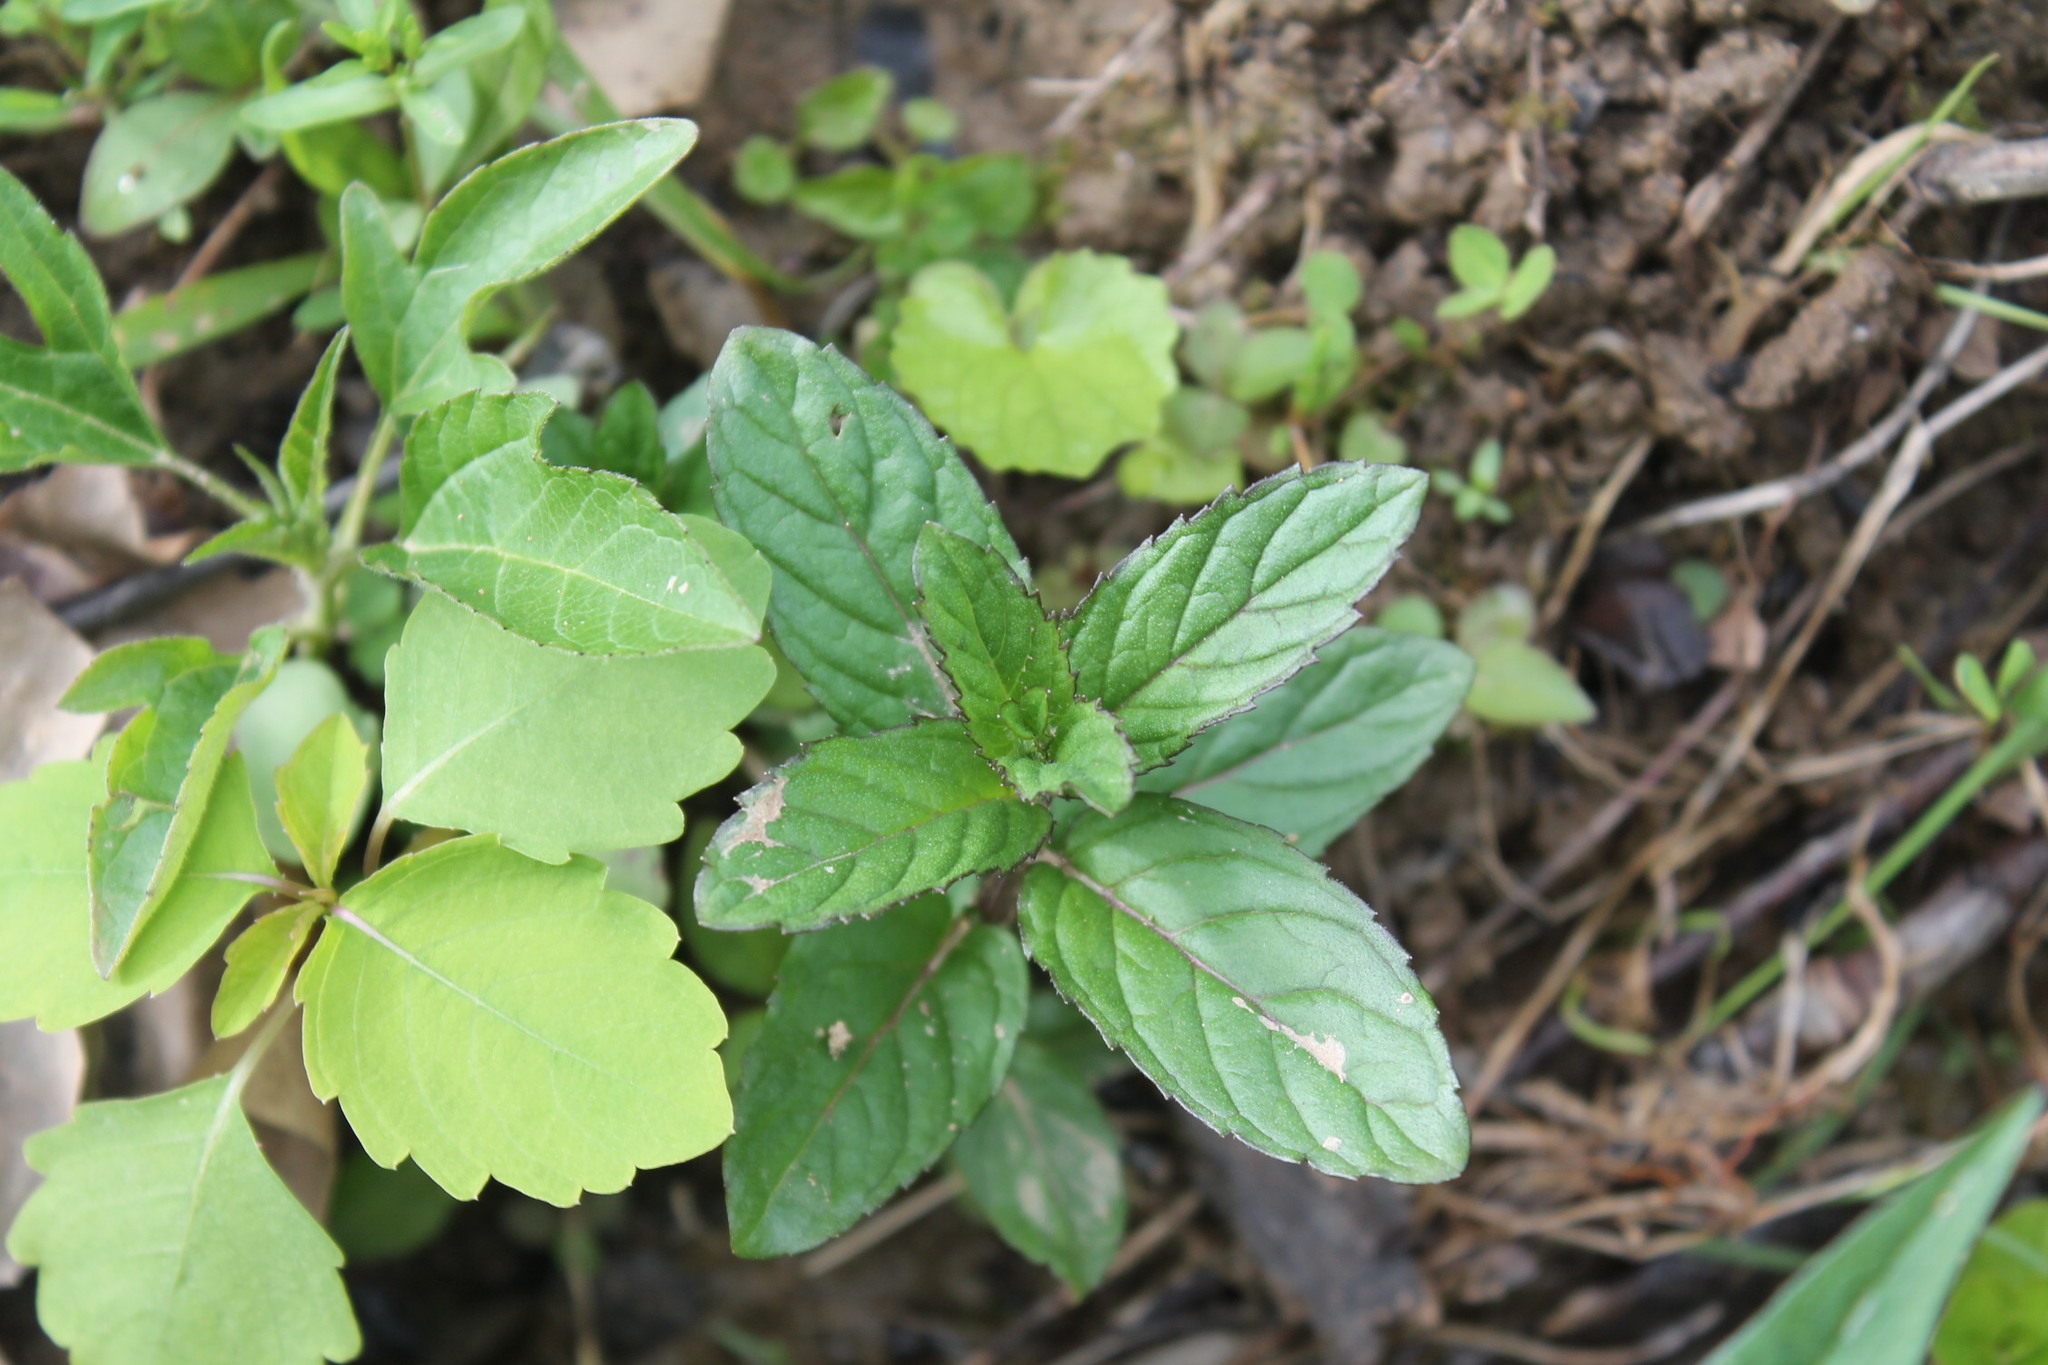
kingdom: Plantae
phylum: Tracheophyta
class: Magnoliopsida
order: Lamiales
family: Lamiaceae
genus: Mentha
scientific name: Mentha spicata
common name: Spearmint
